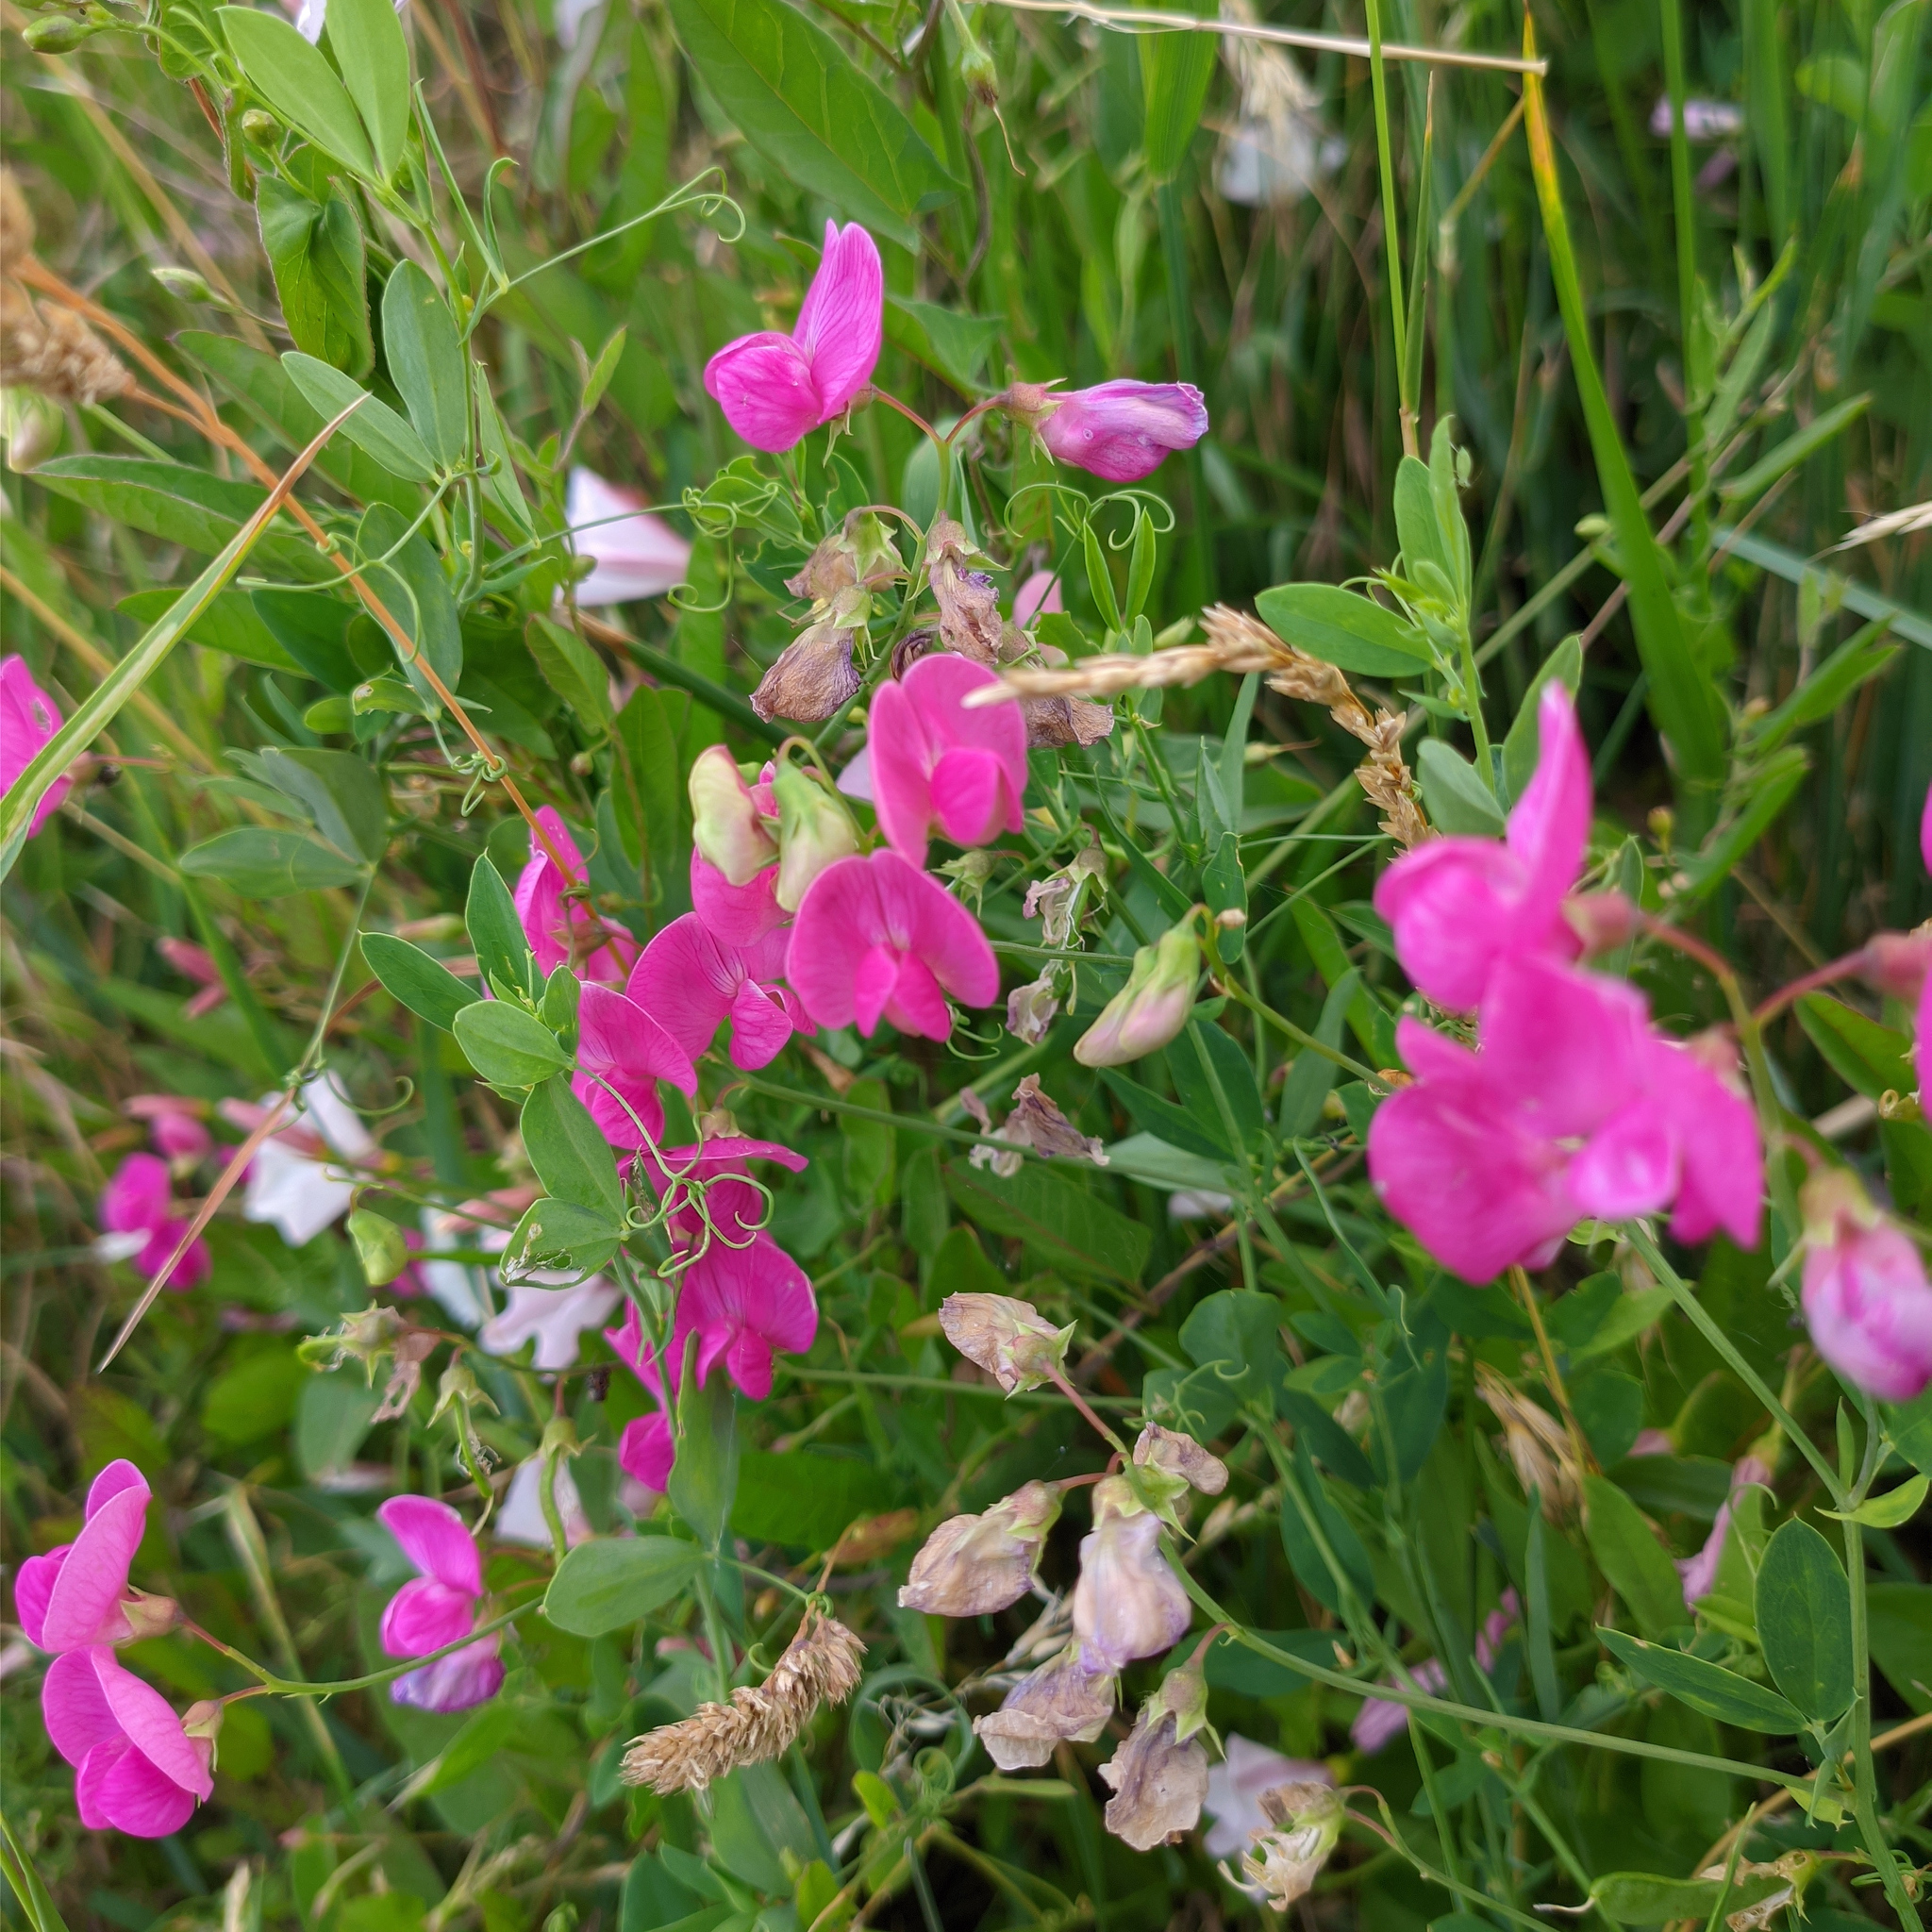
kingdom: Plantae
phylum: Tracheophyta
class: Magnoliopsida
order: Fabales
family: Fabaceae
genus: Lathyrus
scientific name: Lathyrus tuberosus
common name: Tuberous pea
